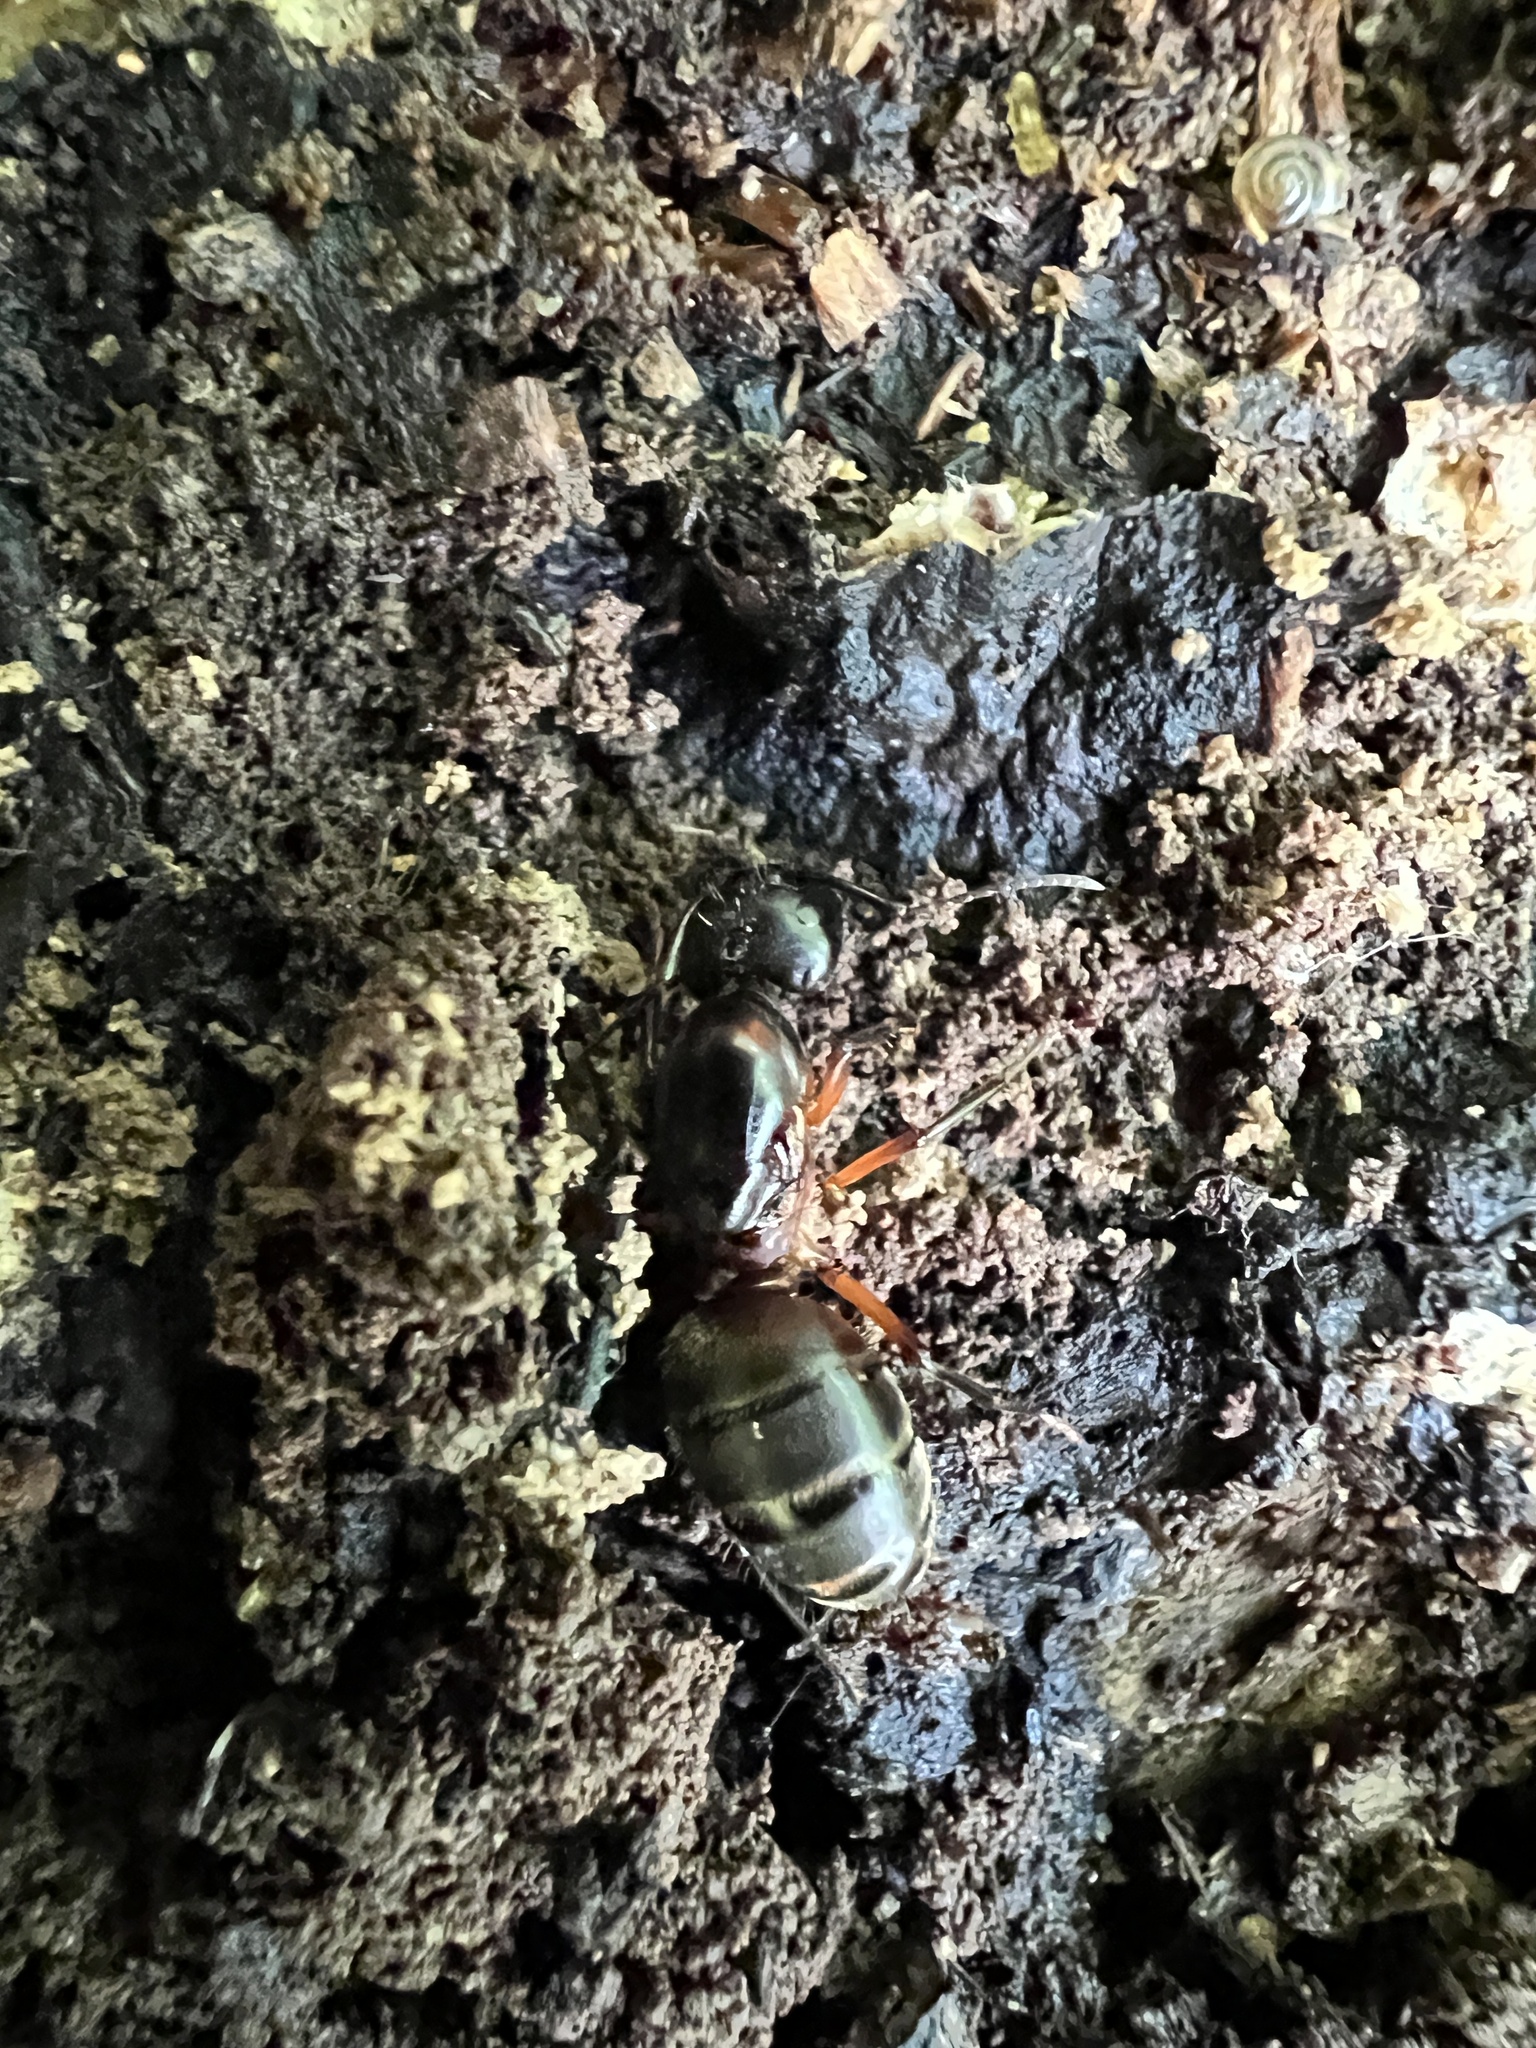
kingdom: Animalia
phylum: Arthropoda
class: Insecta
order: Hymenoptera
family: Formicidae
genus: Camponotus
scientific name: Camponotus chromaiodes
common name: Red carpenter ant
